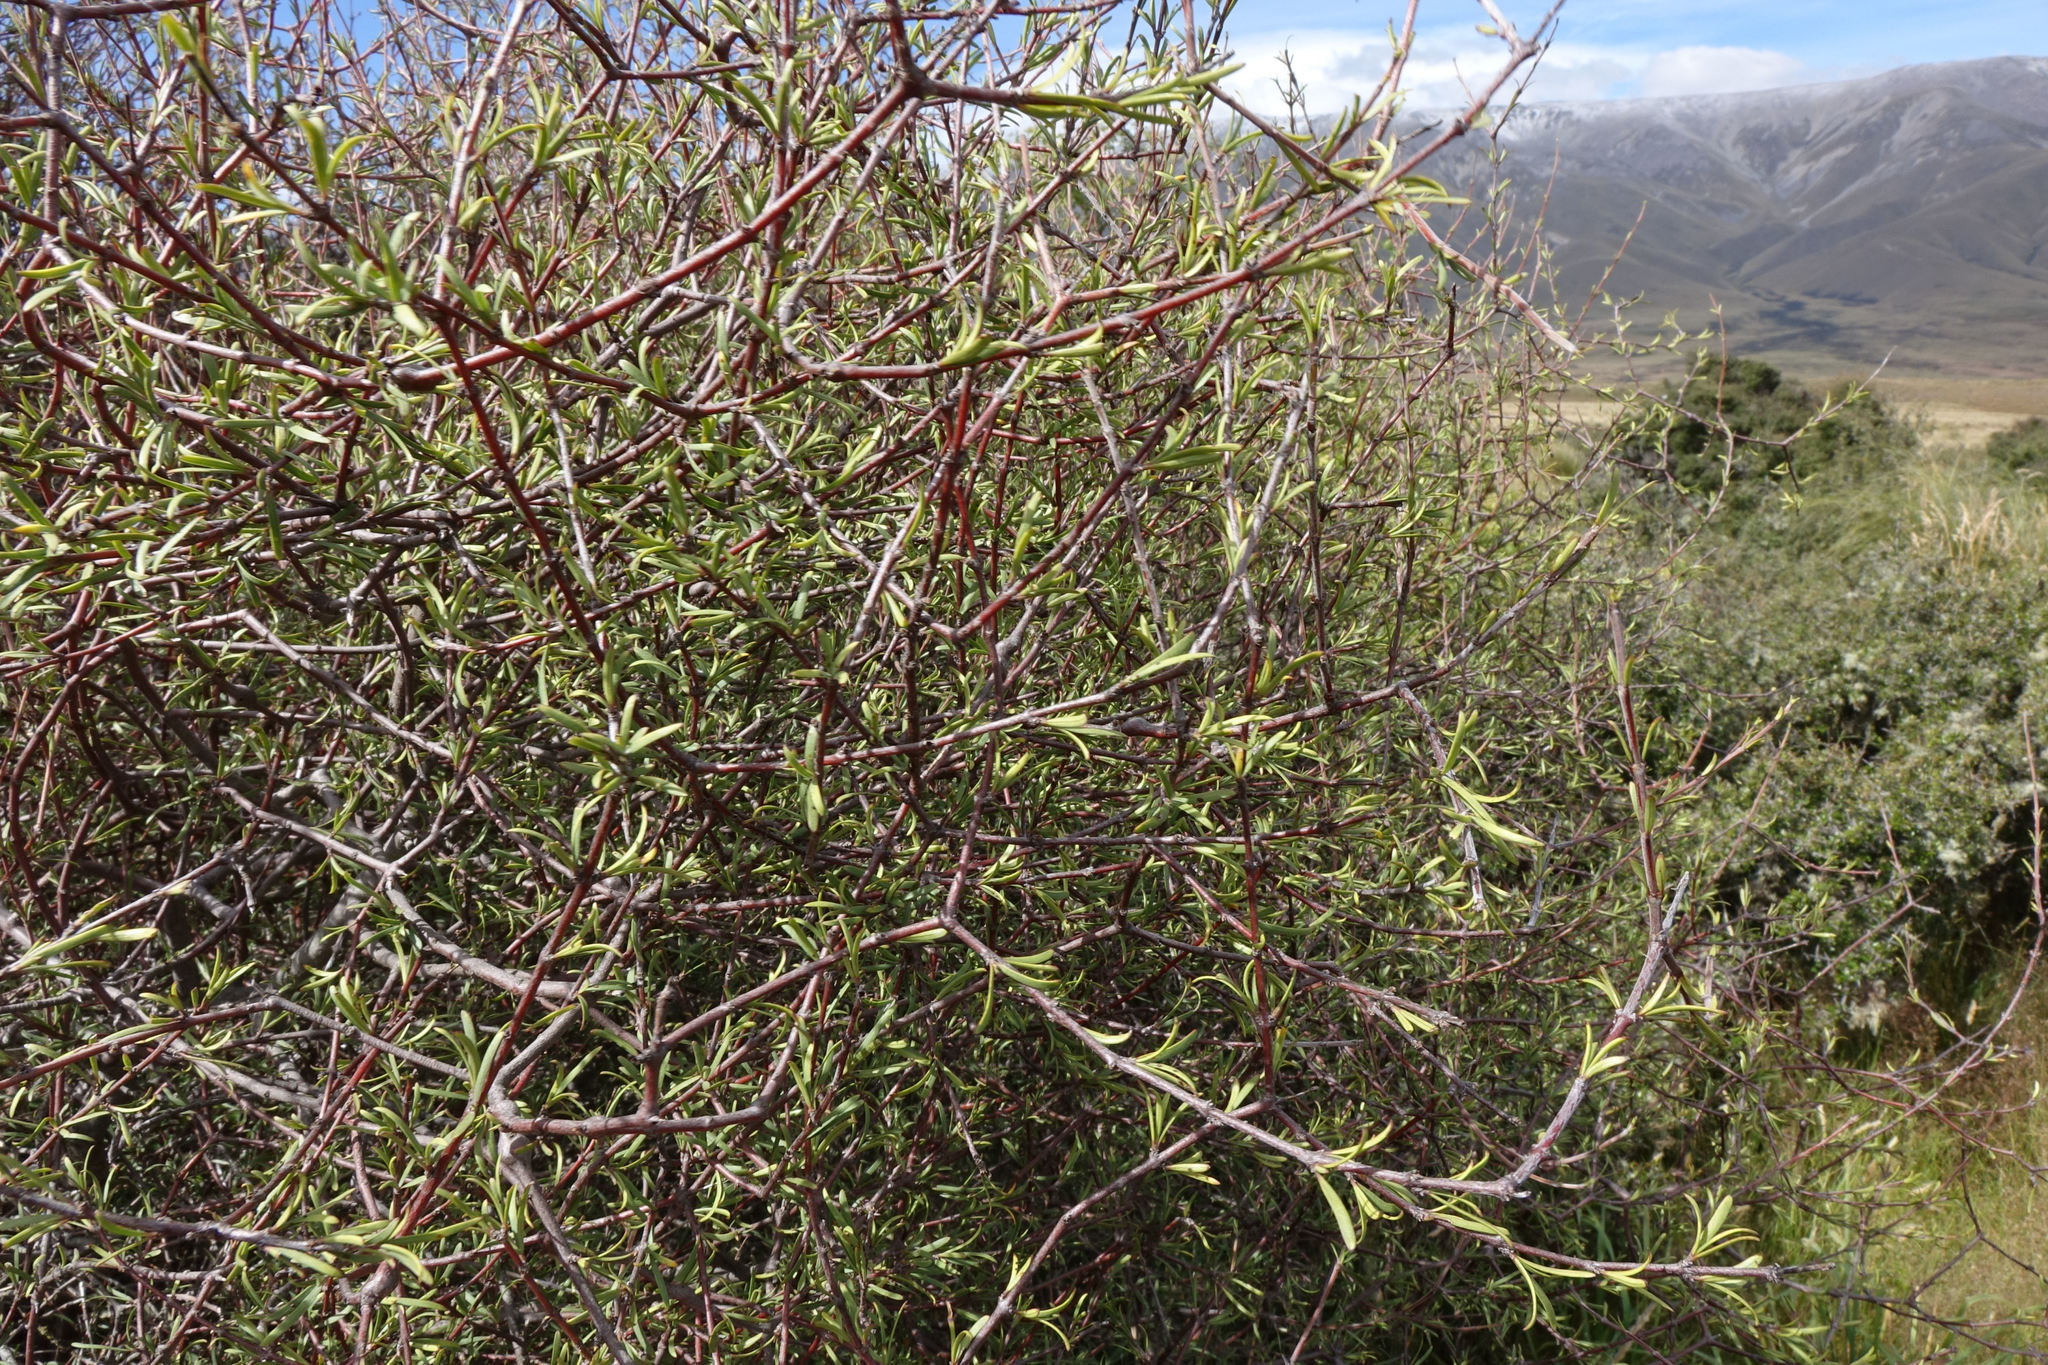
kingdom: Plantae
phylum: Tracheophyta
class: Magnoliopsida
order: Gentianales
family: Rubiaceae
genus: Coprosma
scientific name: Coprosma intertexta
